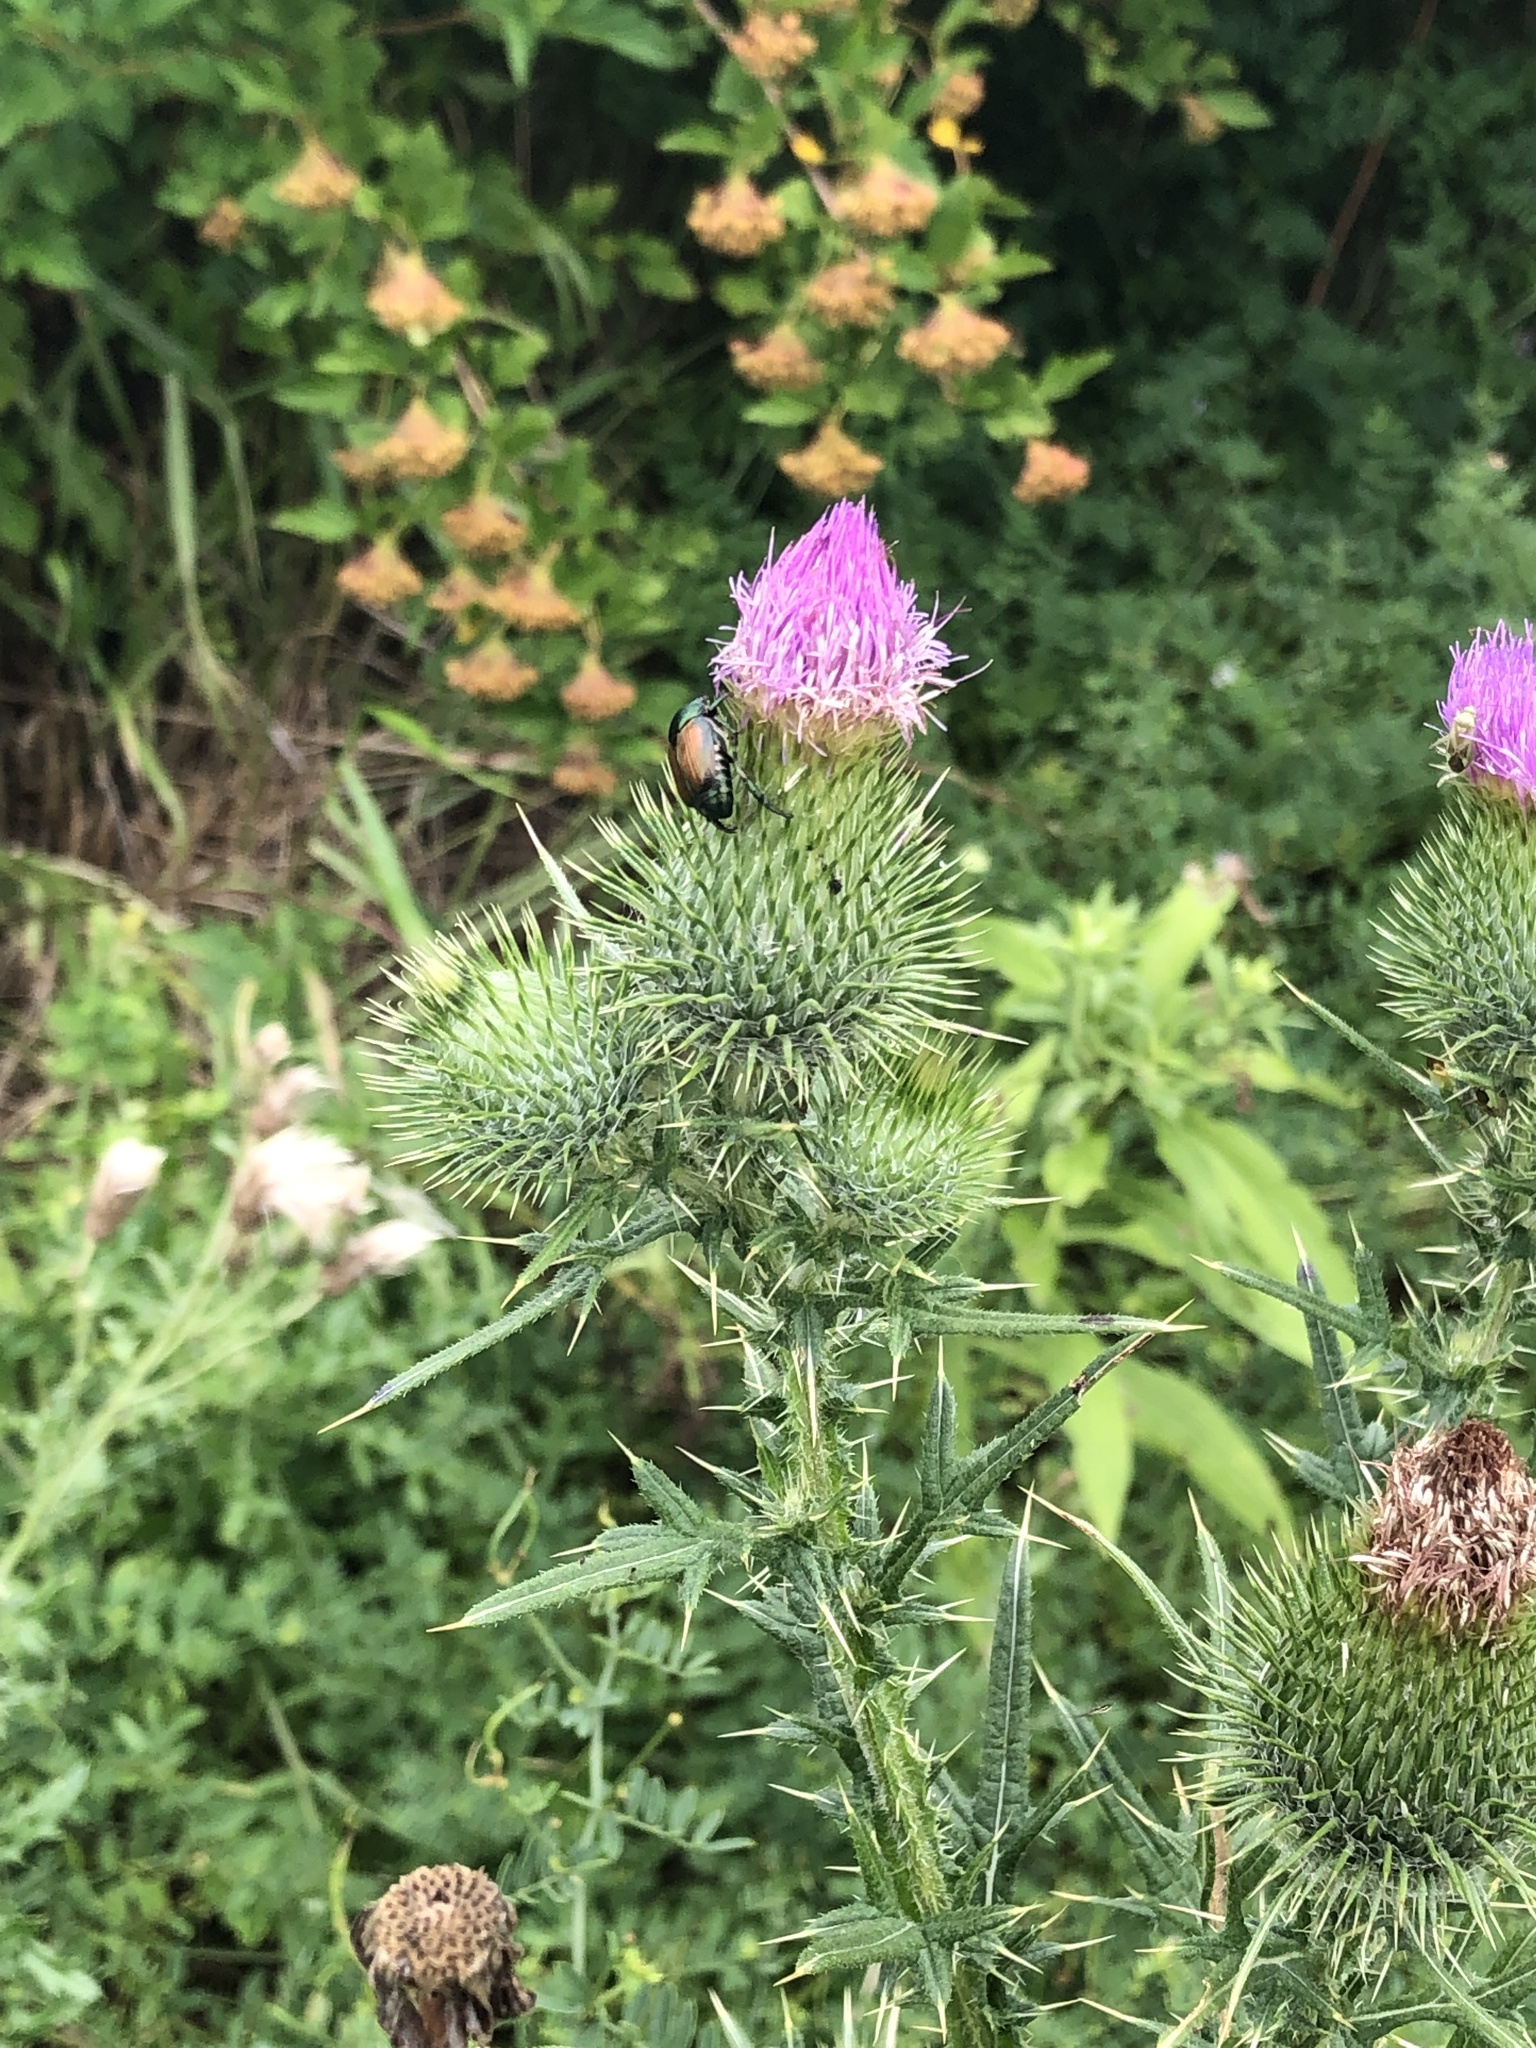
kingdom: Plantae
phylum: Tracheophyta
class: Magnoliopsida
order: Asterales
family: Asteraceae
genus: Cirsium
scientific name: Cirsium vulgare
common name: Bull thistle
